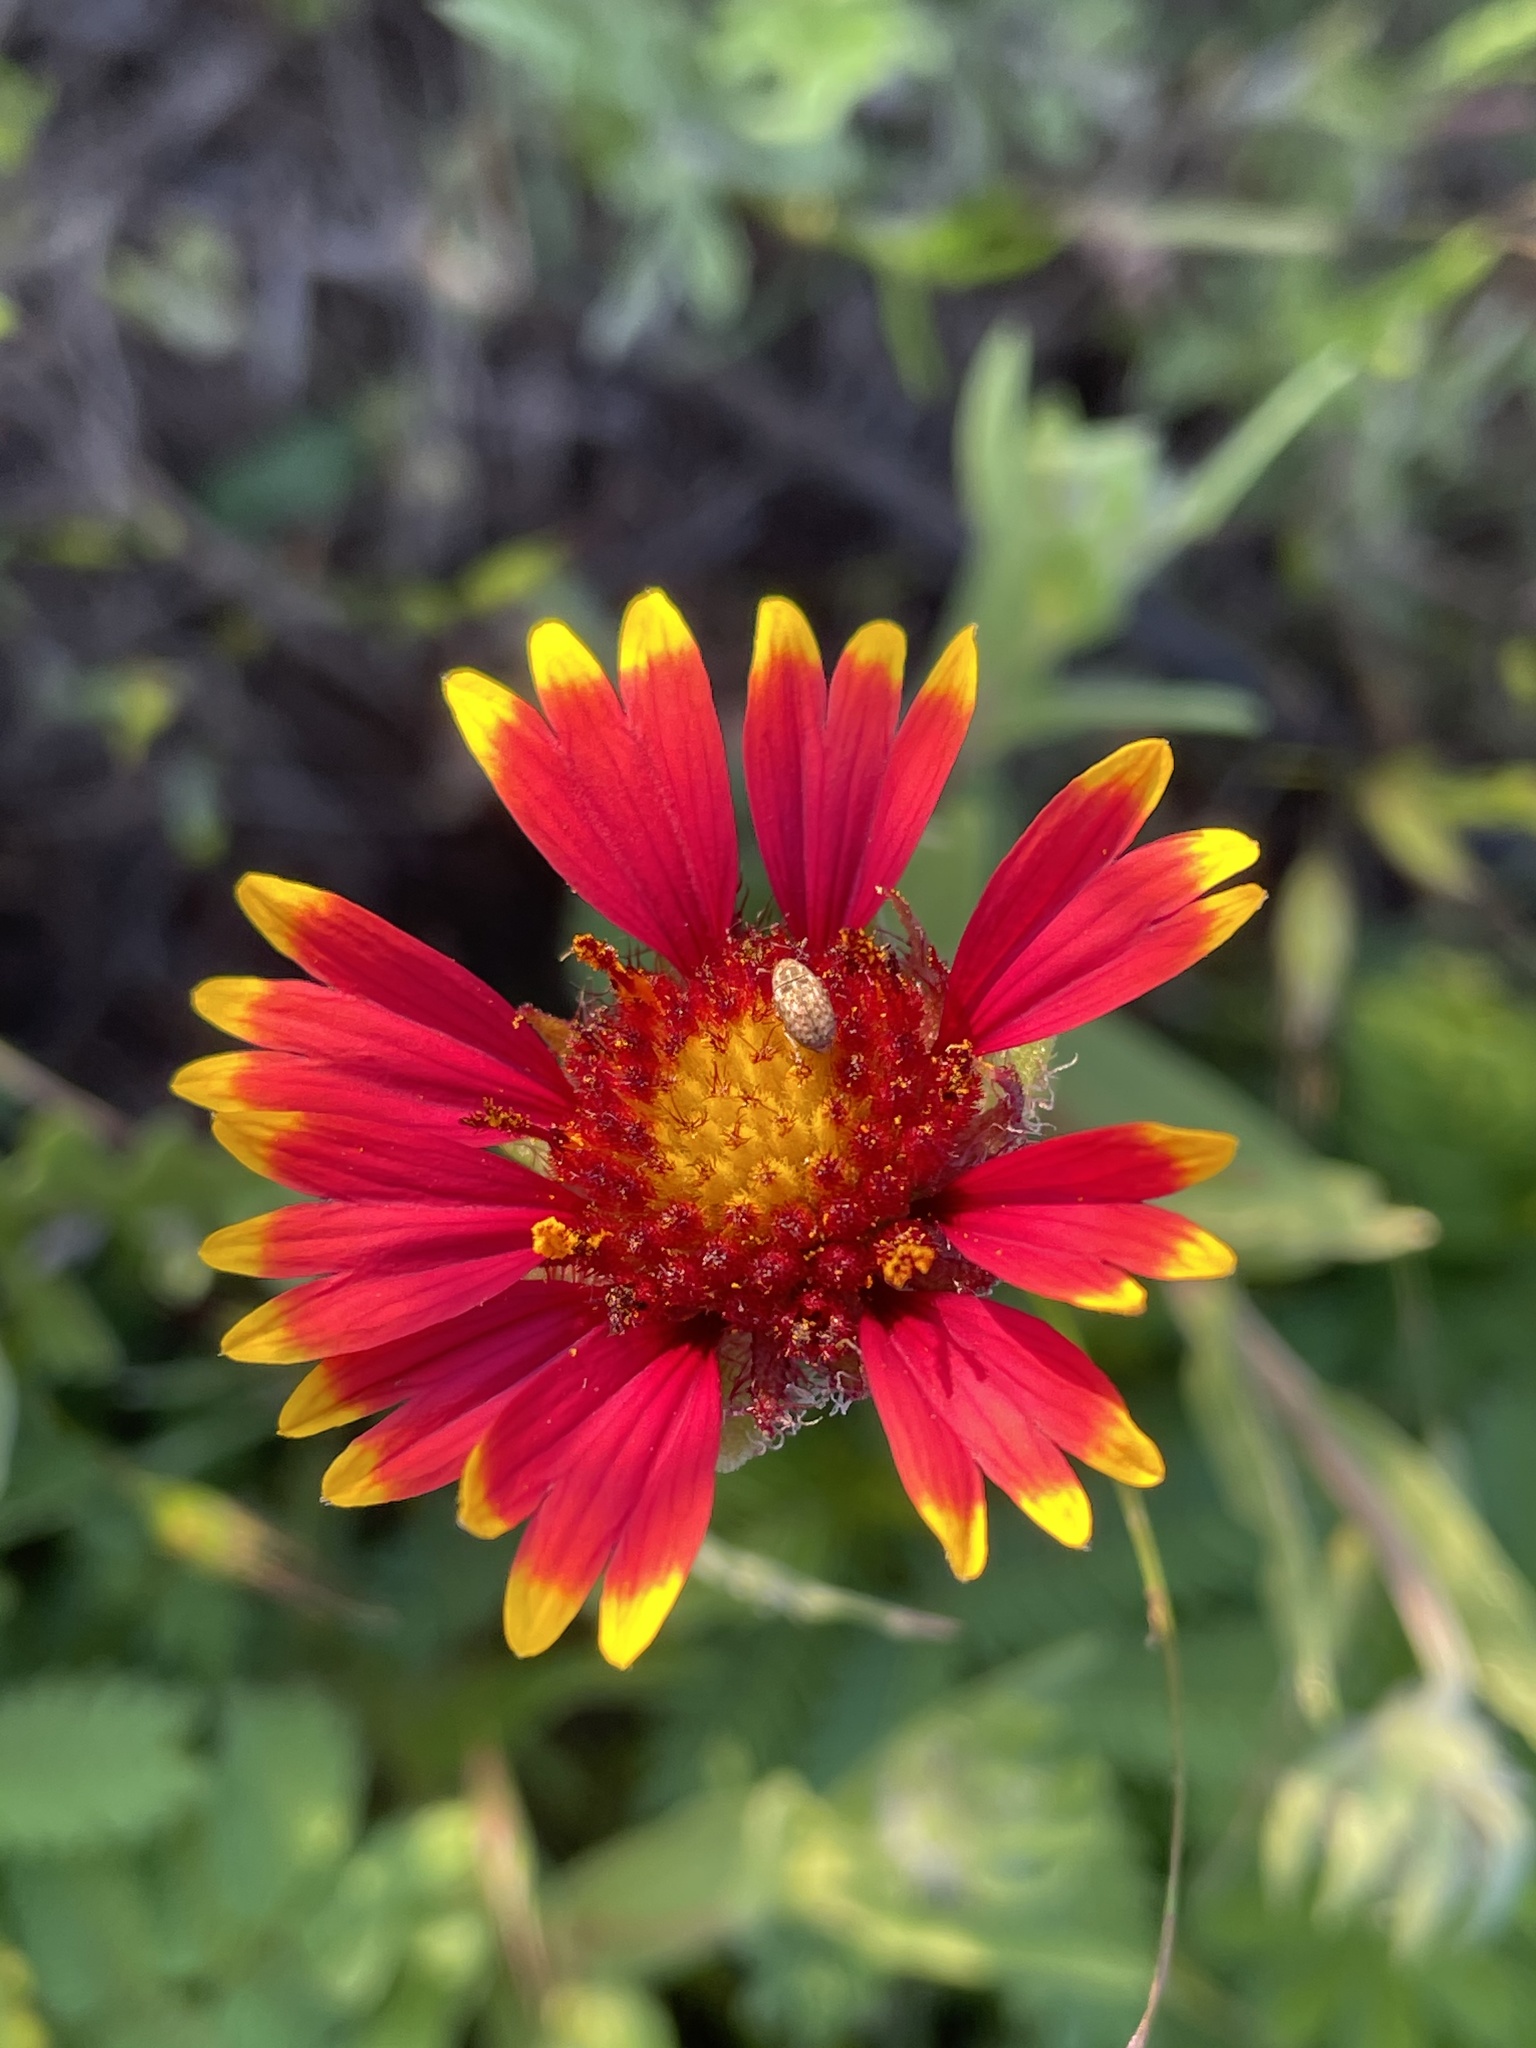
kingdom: Plantae
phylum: Tracheophyta
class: Magnoliopsida
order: Asterales
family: Asteraceae
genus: Gaillardia
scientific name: Gaillardia pulchella
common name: Firewheel
